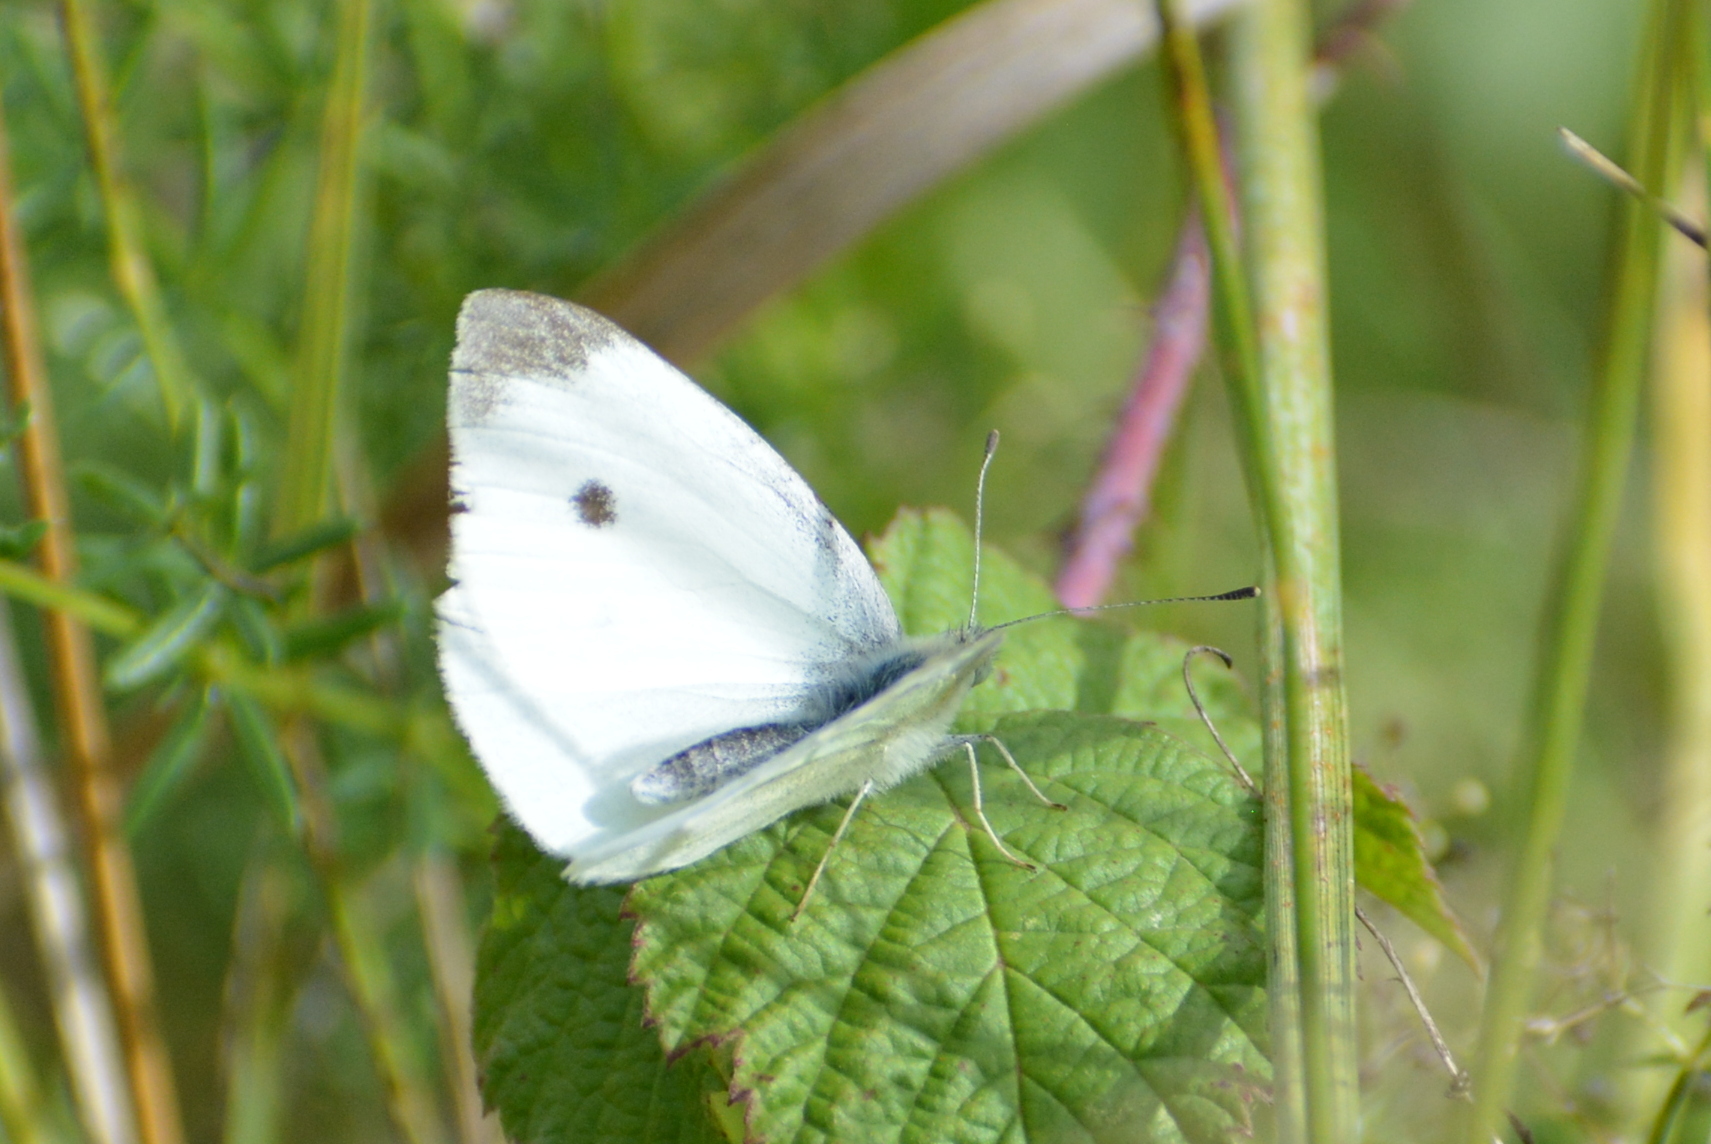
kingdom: Animalia
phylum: Arthropoda
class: Insecta
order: Lepidoptera
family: Pieridae
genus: Pieris
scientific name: Pieris rapae
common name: Small white
